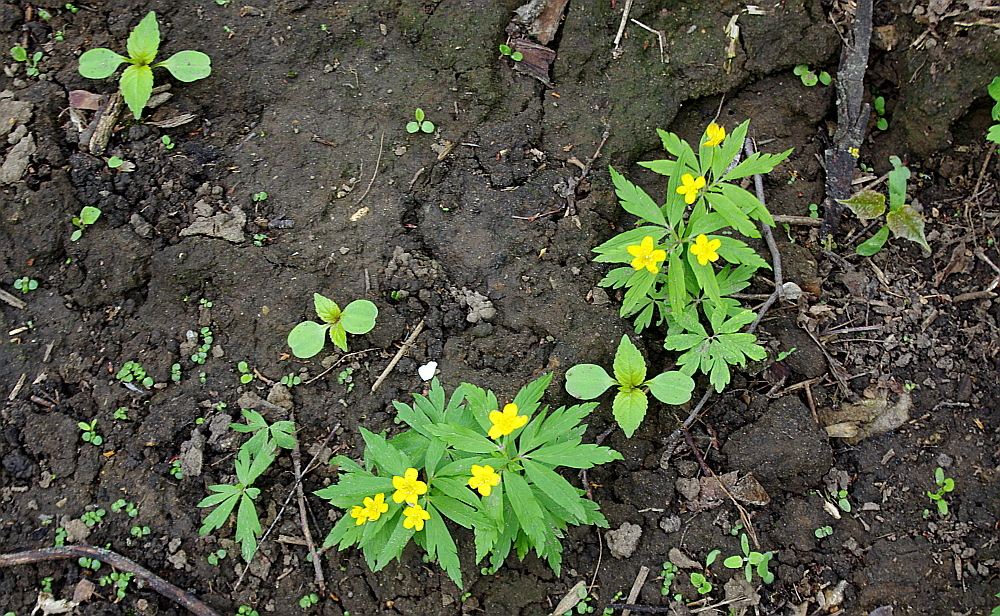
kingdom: Plantae
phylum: Tracheophyta
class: Magnoliopsida
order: Ranunculales
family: Ranunculaceae
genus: Anemone
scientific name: Anemone ranunculoides
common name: Yellow anemone
